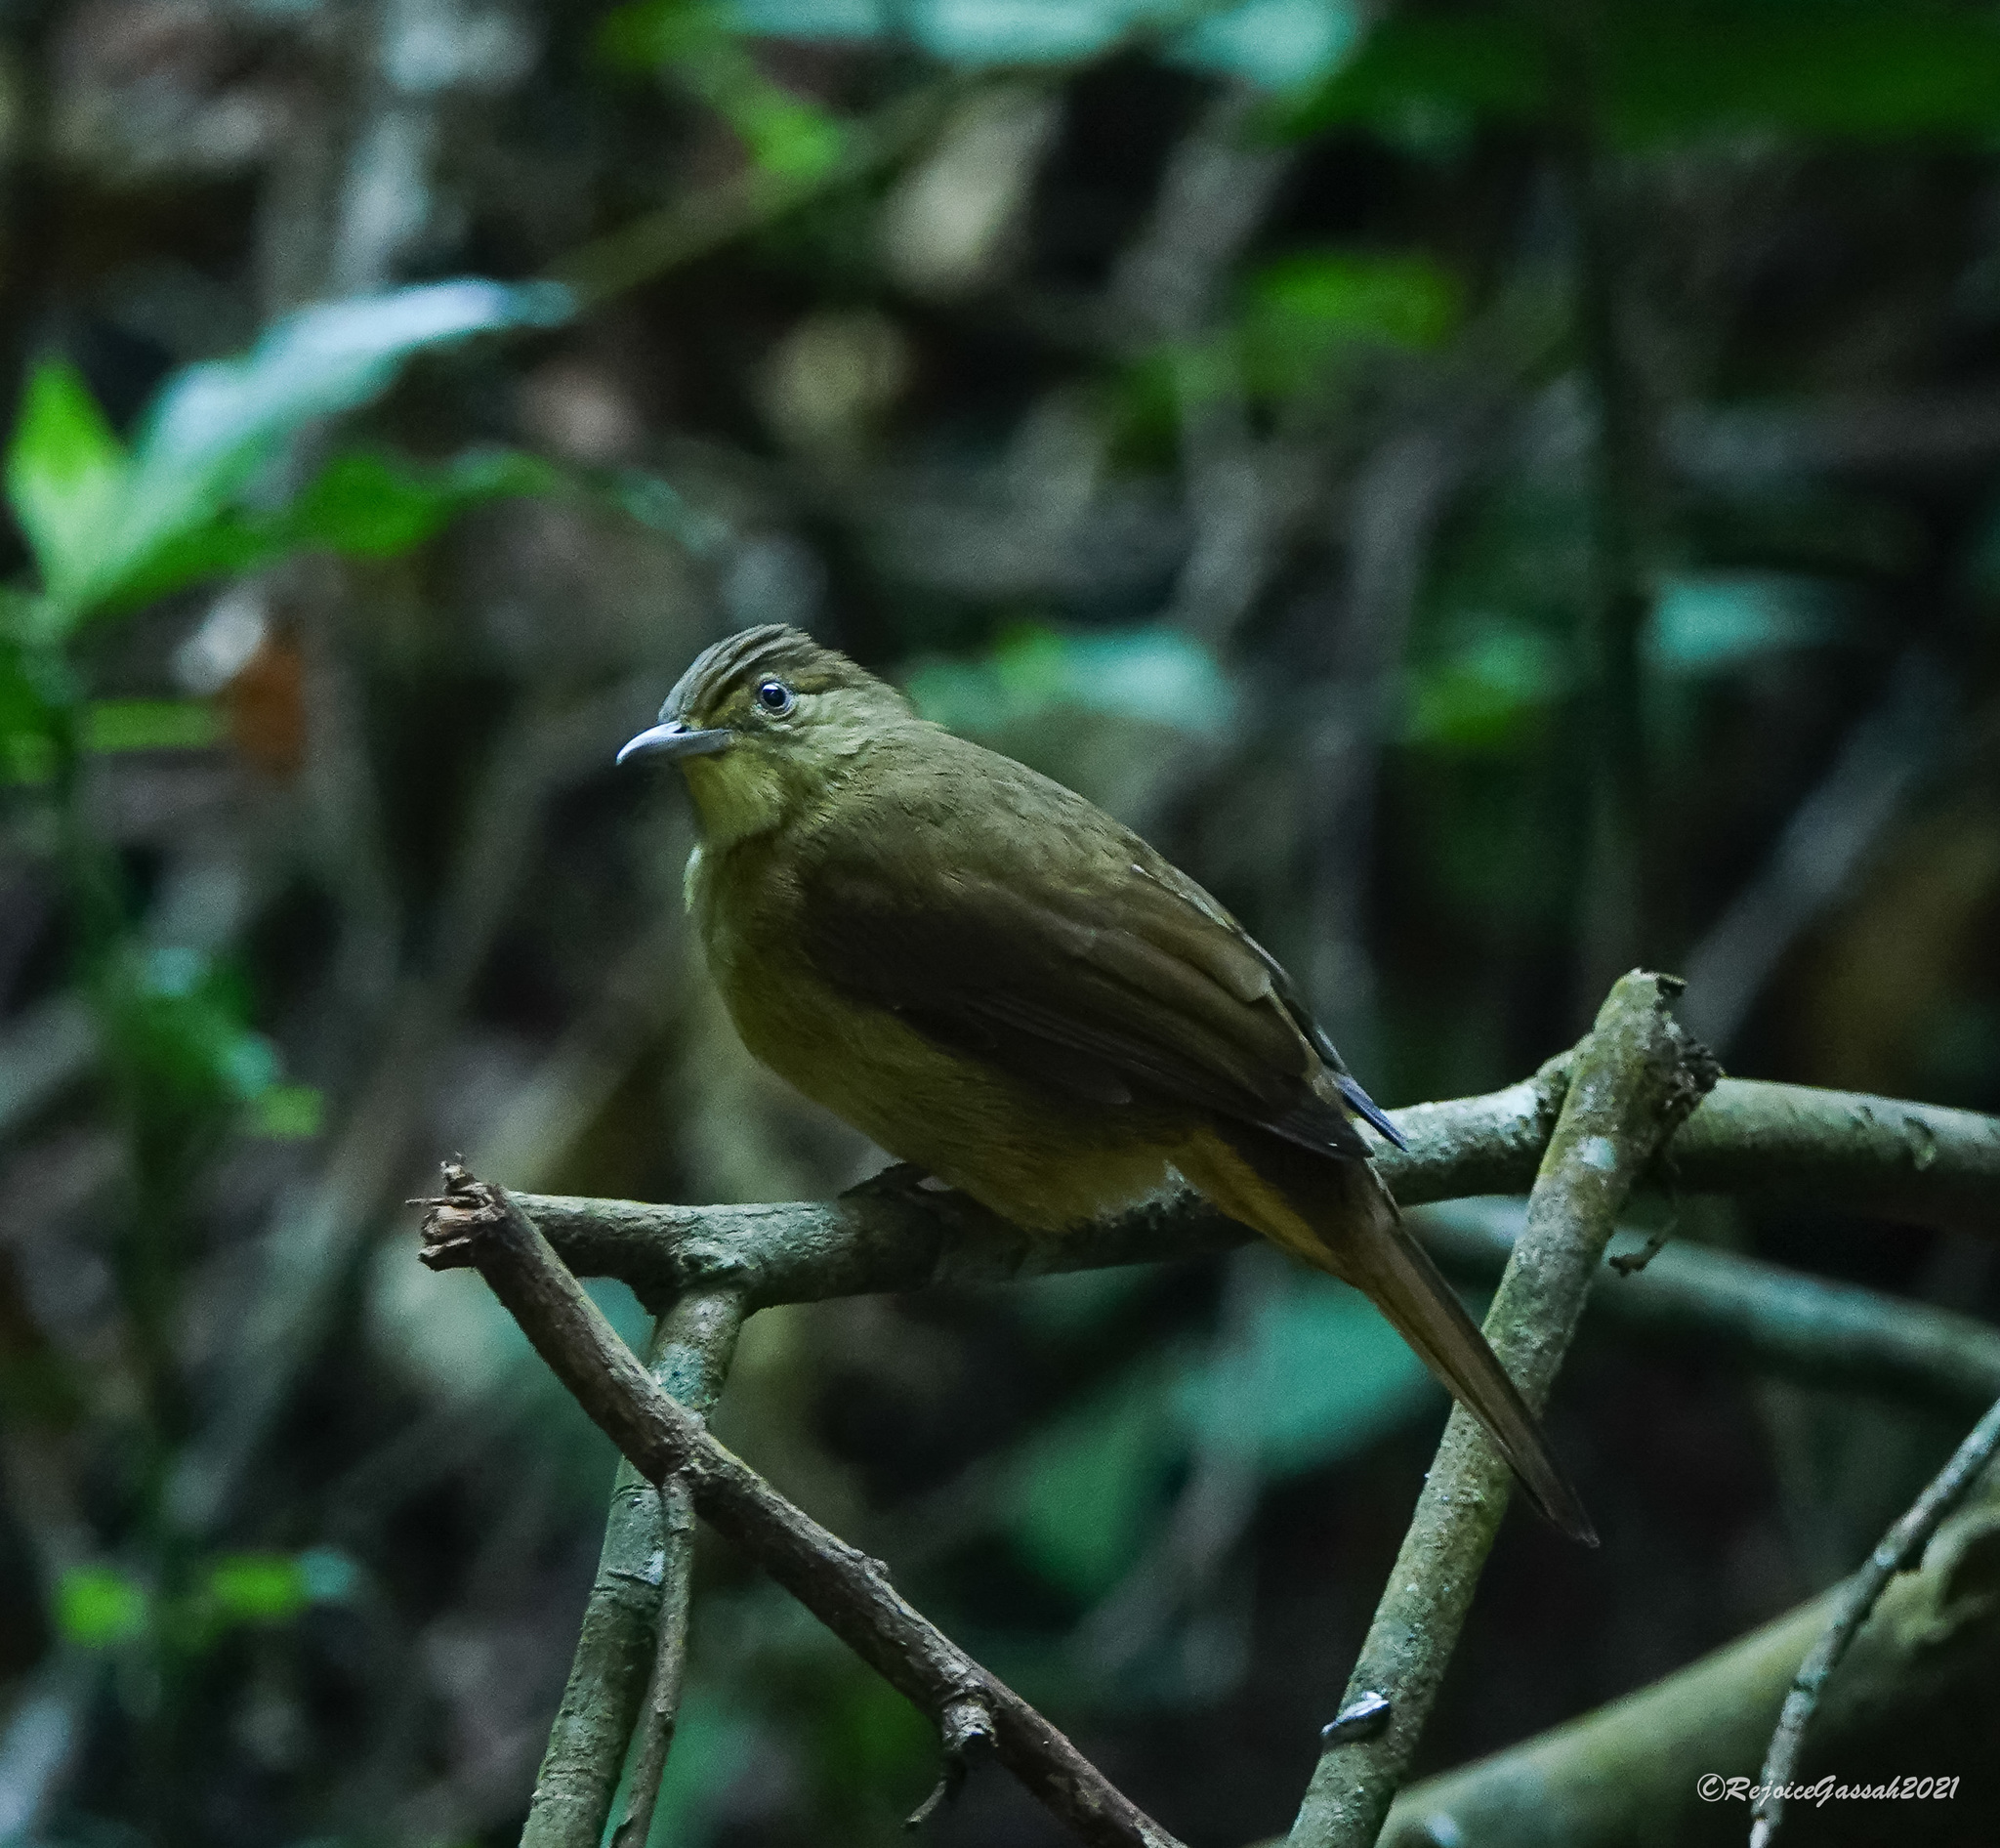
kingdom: Animalia
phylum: Chordata
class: Aves
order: Passeriformes
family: Pycnonotidae
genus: Iole
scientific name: Iole virescens
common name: Olive bulbul
